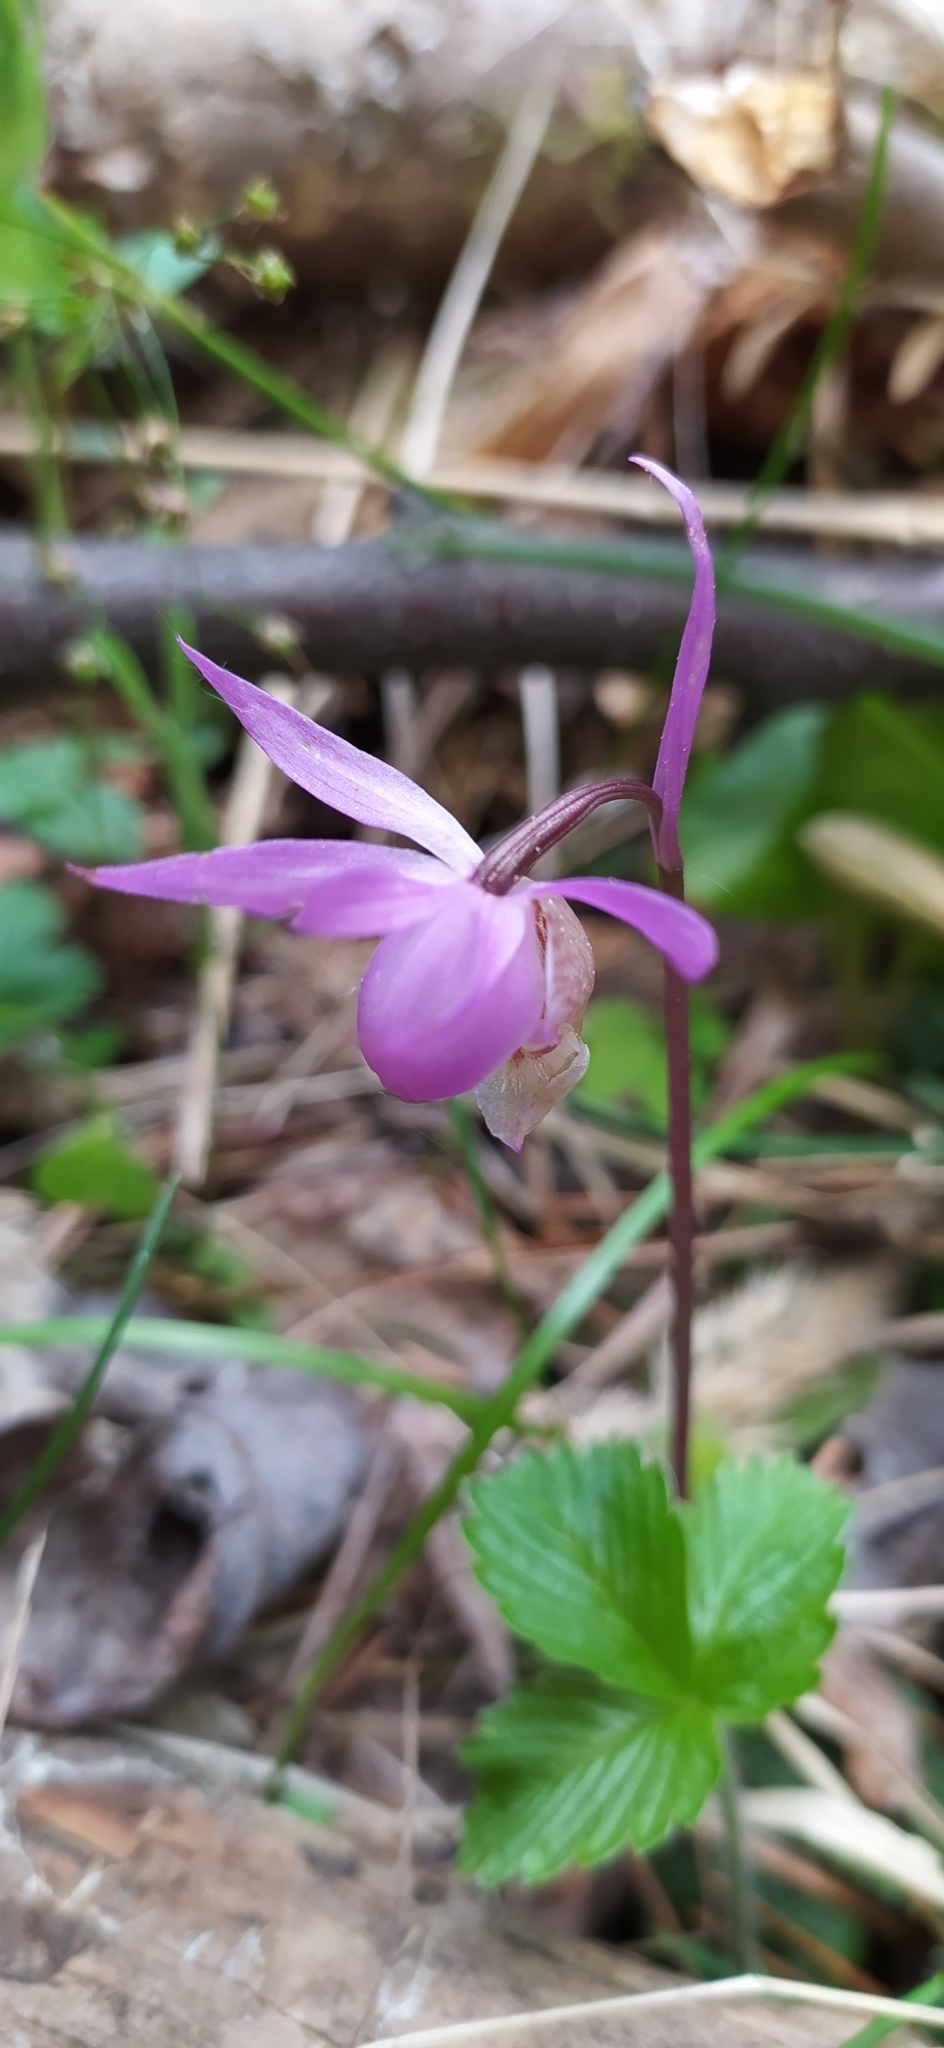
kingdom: Plantae
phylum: Tracheophyta
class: Liliopsida
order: Asparagales
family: Orchidaceae
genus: Calypso
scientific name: Calypso bulbosa
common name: Calypso
